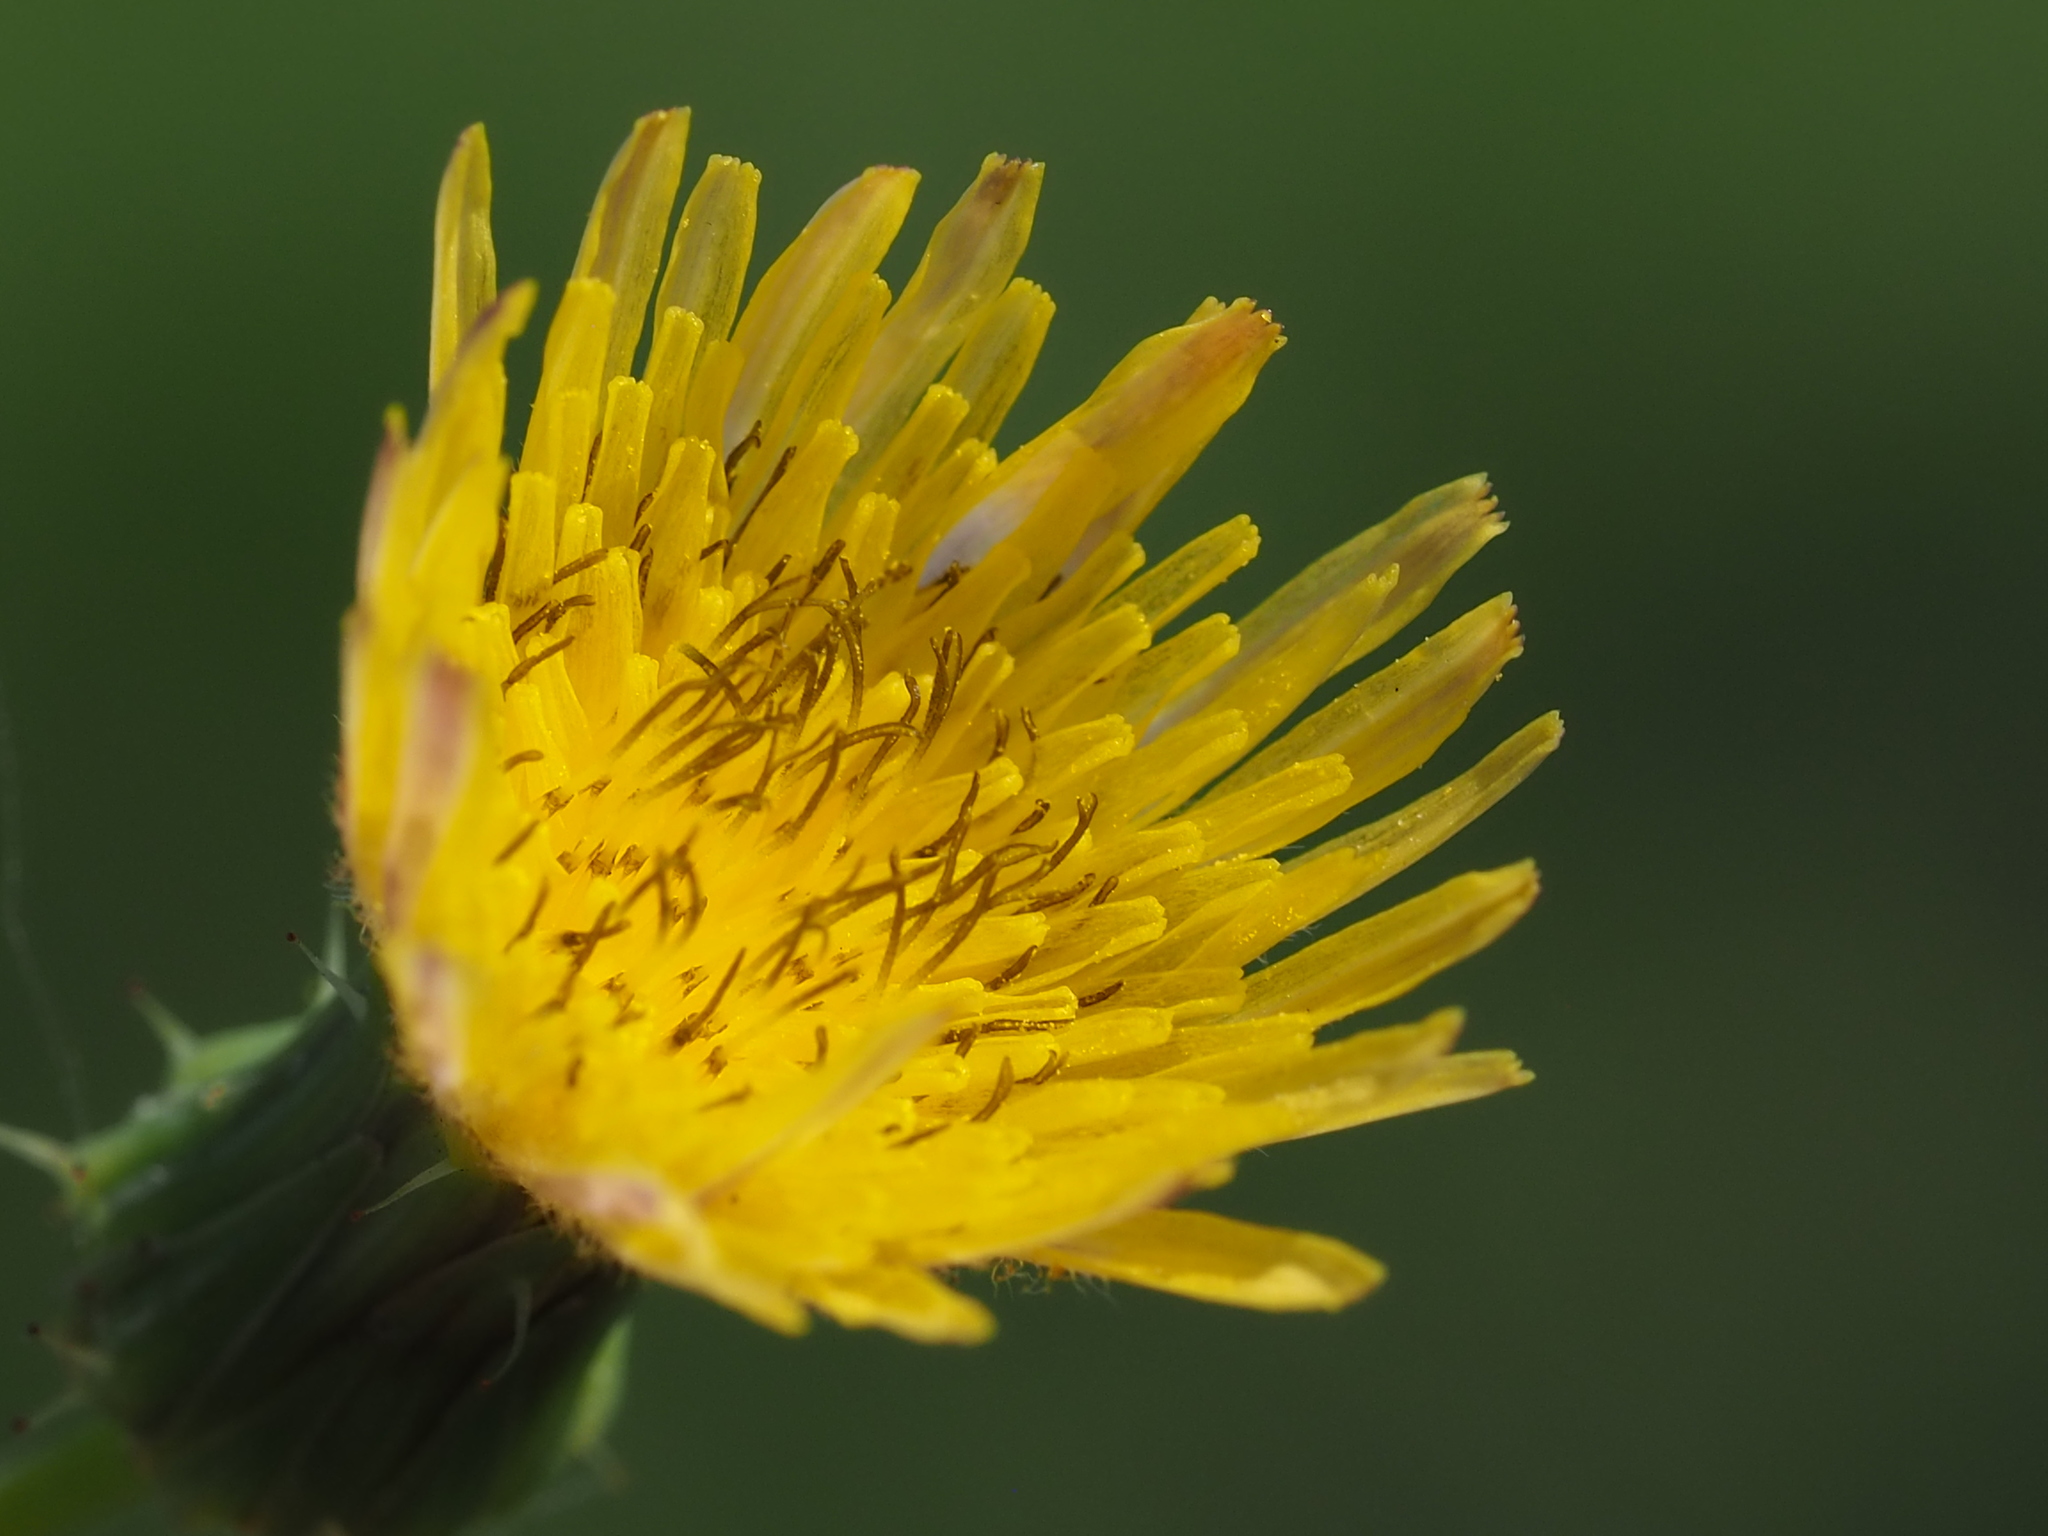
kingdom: Plantae
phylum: Tracheophyta
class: Magnoliopsida
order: Asterales
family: Asteraceae
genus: Sonchus
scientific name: Sonchus oleraceus
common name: Common sowthistle
